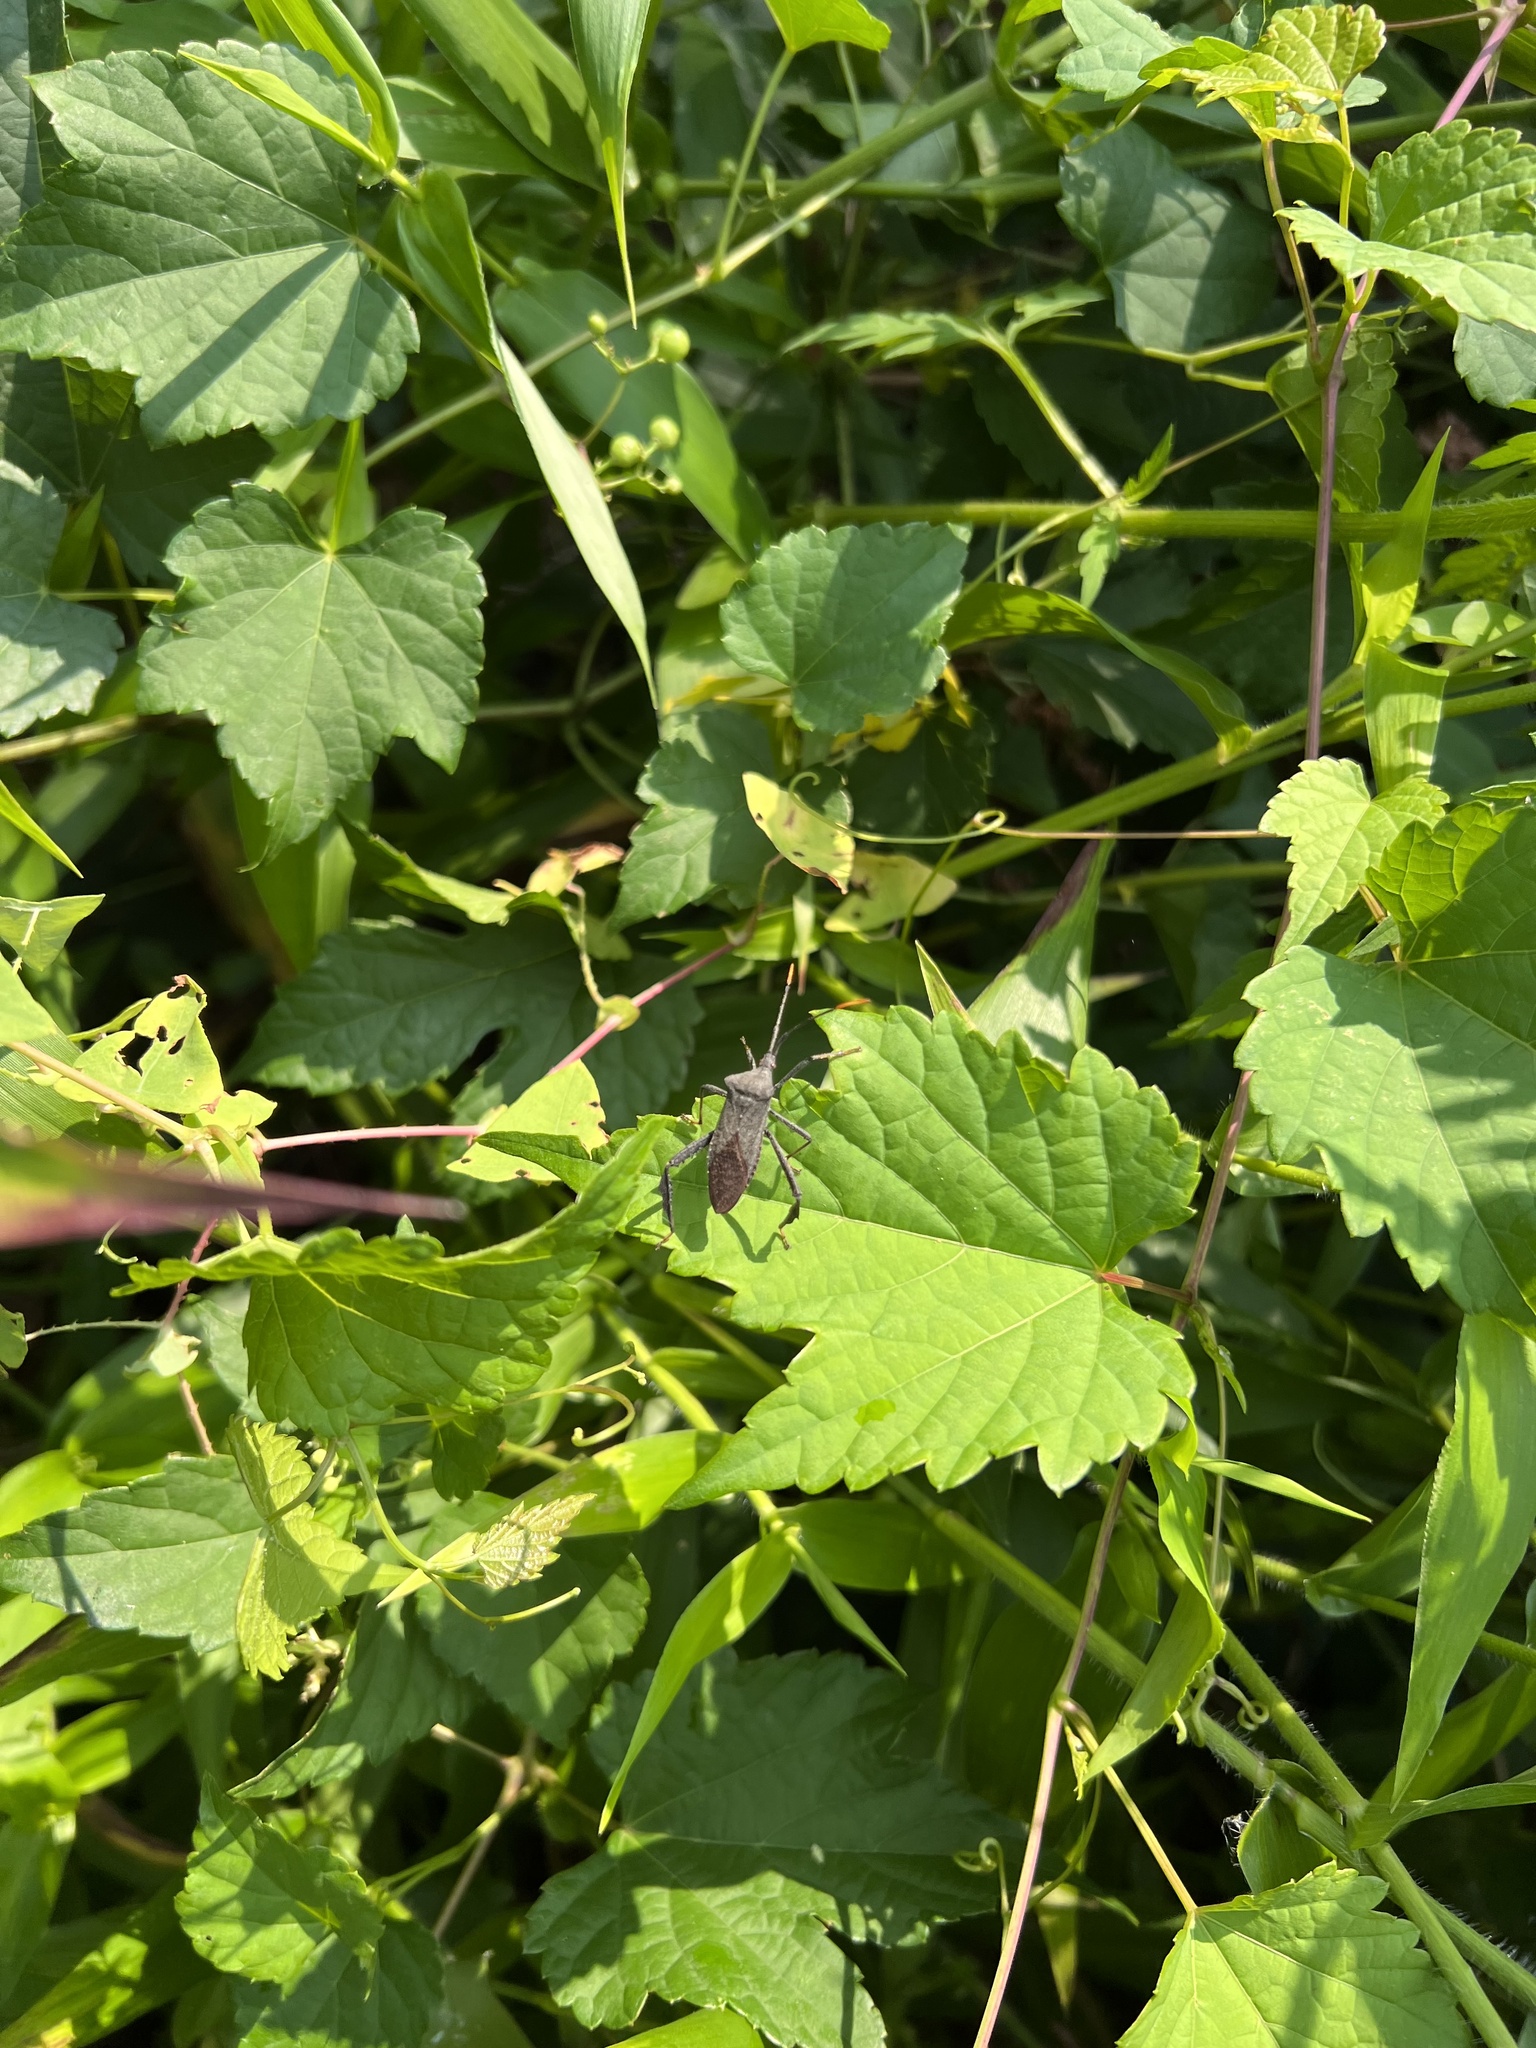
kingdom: Animalia
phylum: Arthropoda
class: Insecta
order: Hemiptera
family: Coreidae
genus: Acanthocephala
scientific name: Acanthocephala terminalis
